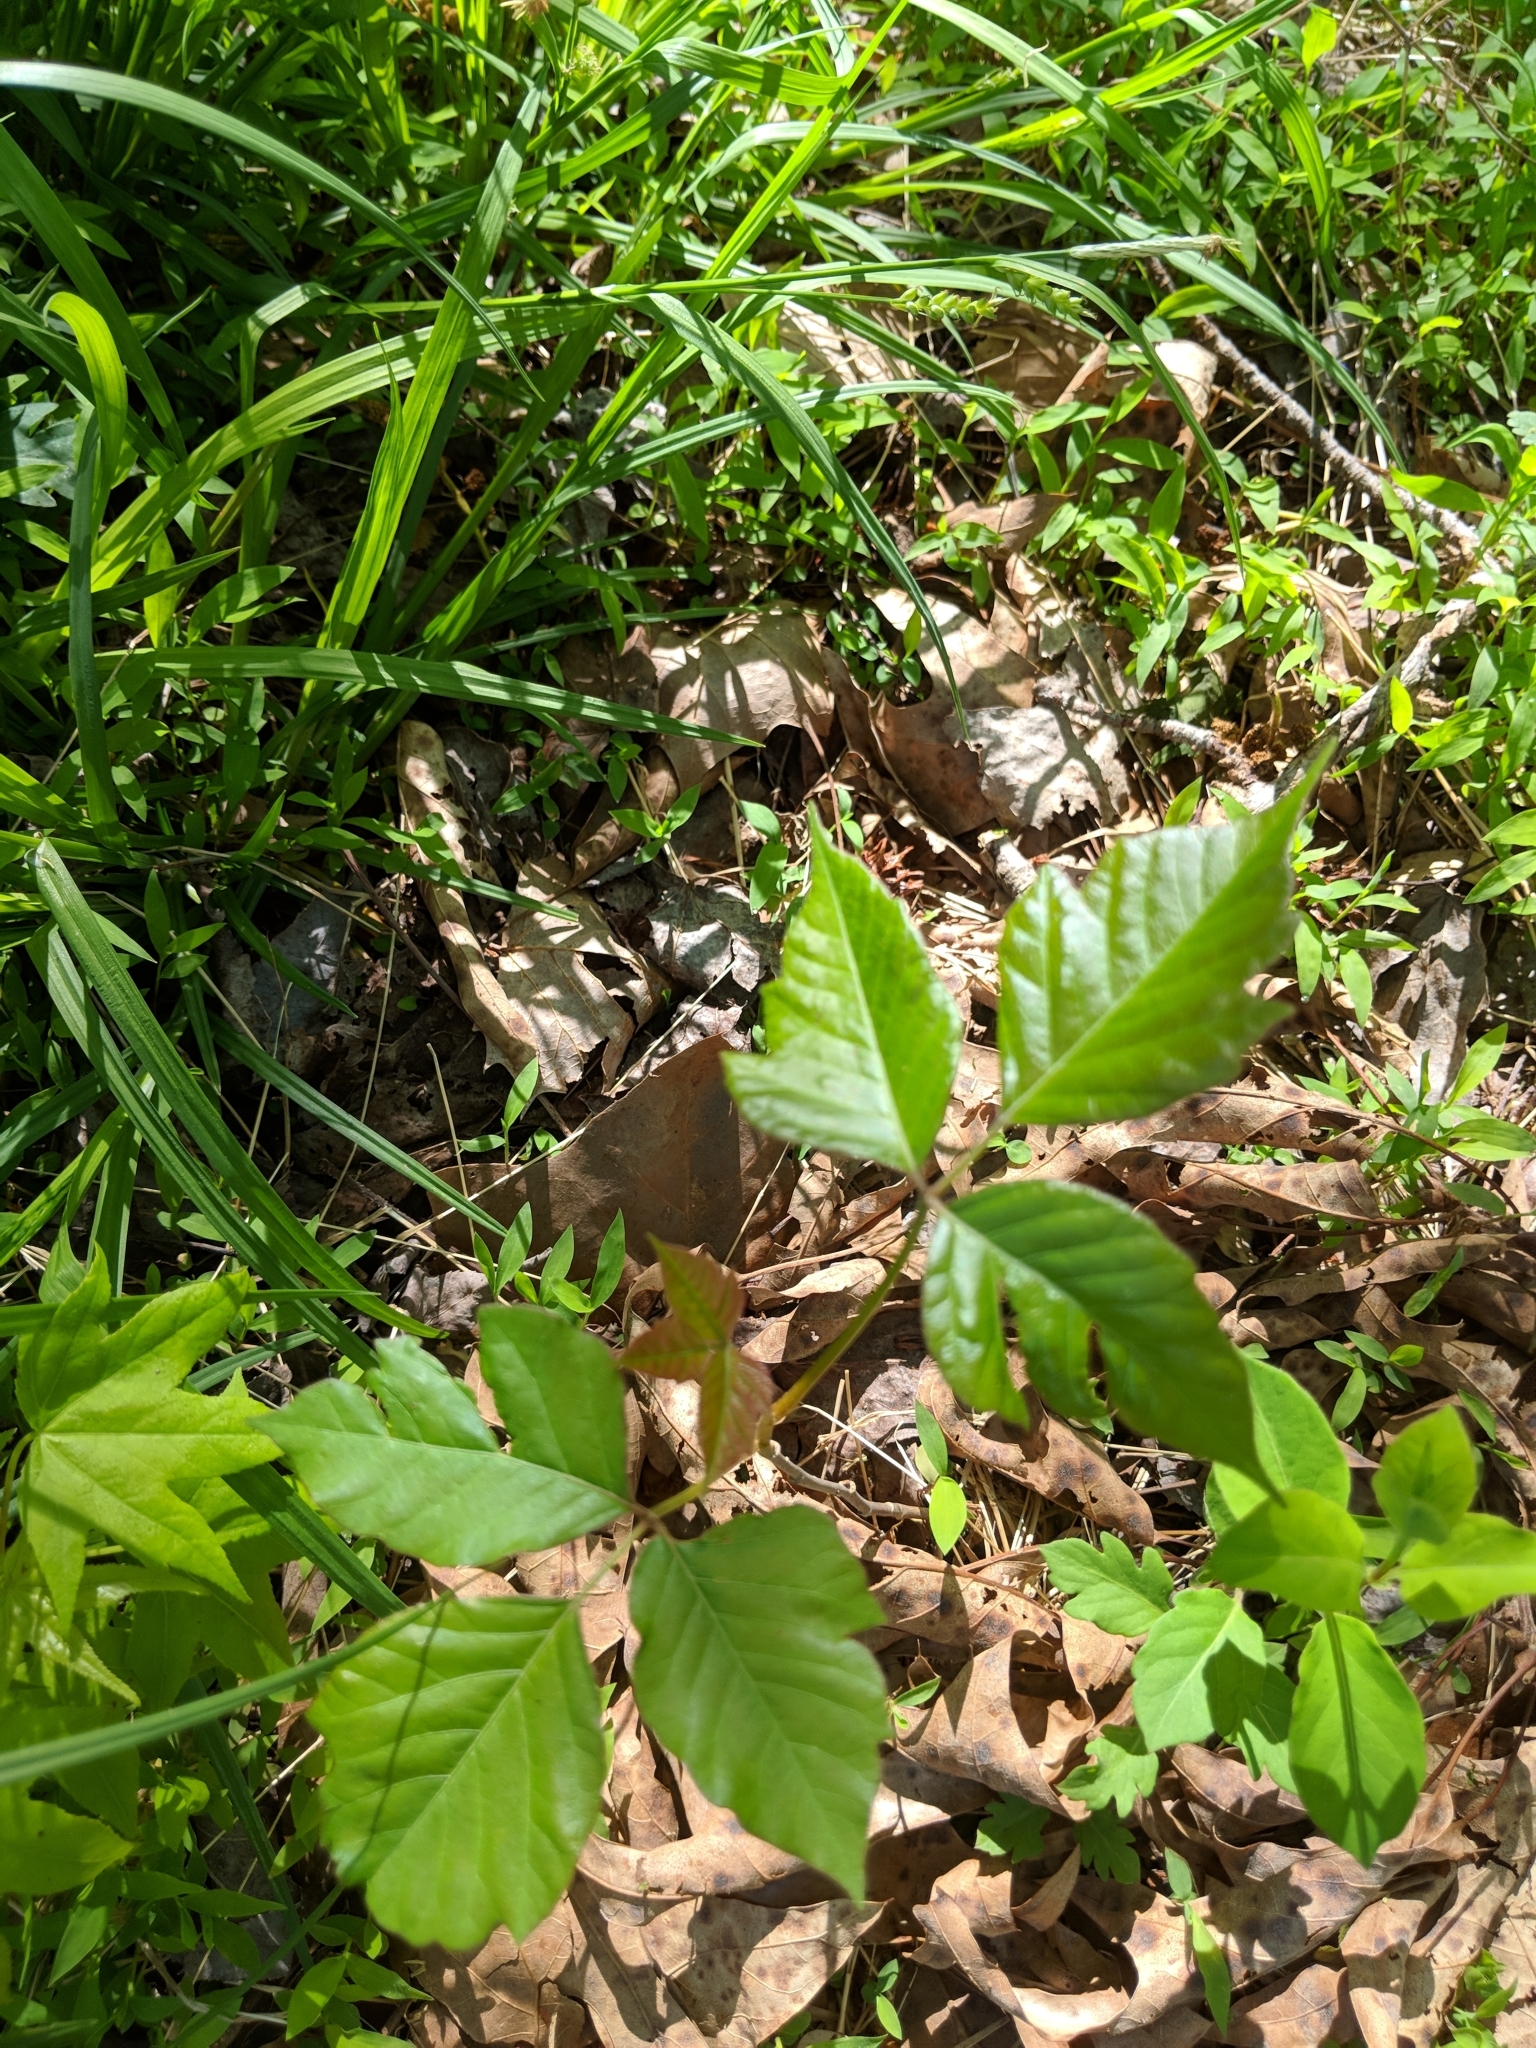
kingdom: Plantae
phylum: Tracheophyta
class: Magnoliopsida
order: Sapindales
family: Anacardiaceae
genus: Toxicodendron
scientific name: Toxicodendron radicans
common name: Poison ivy
